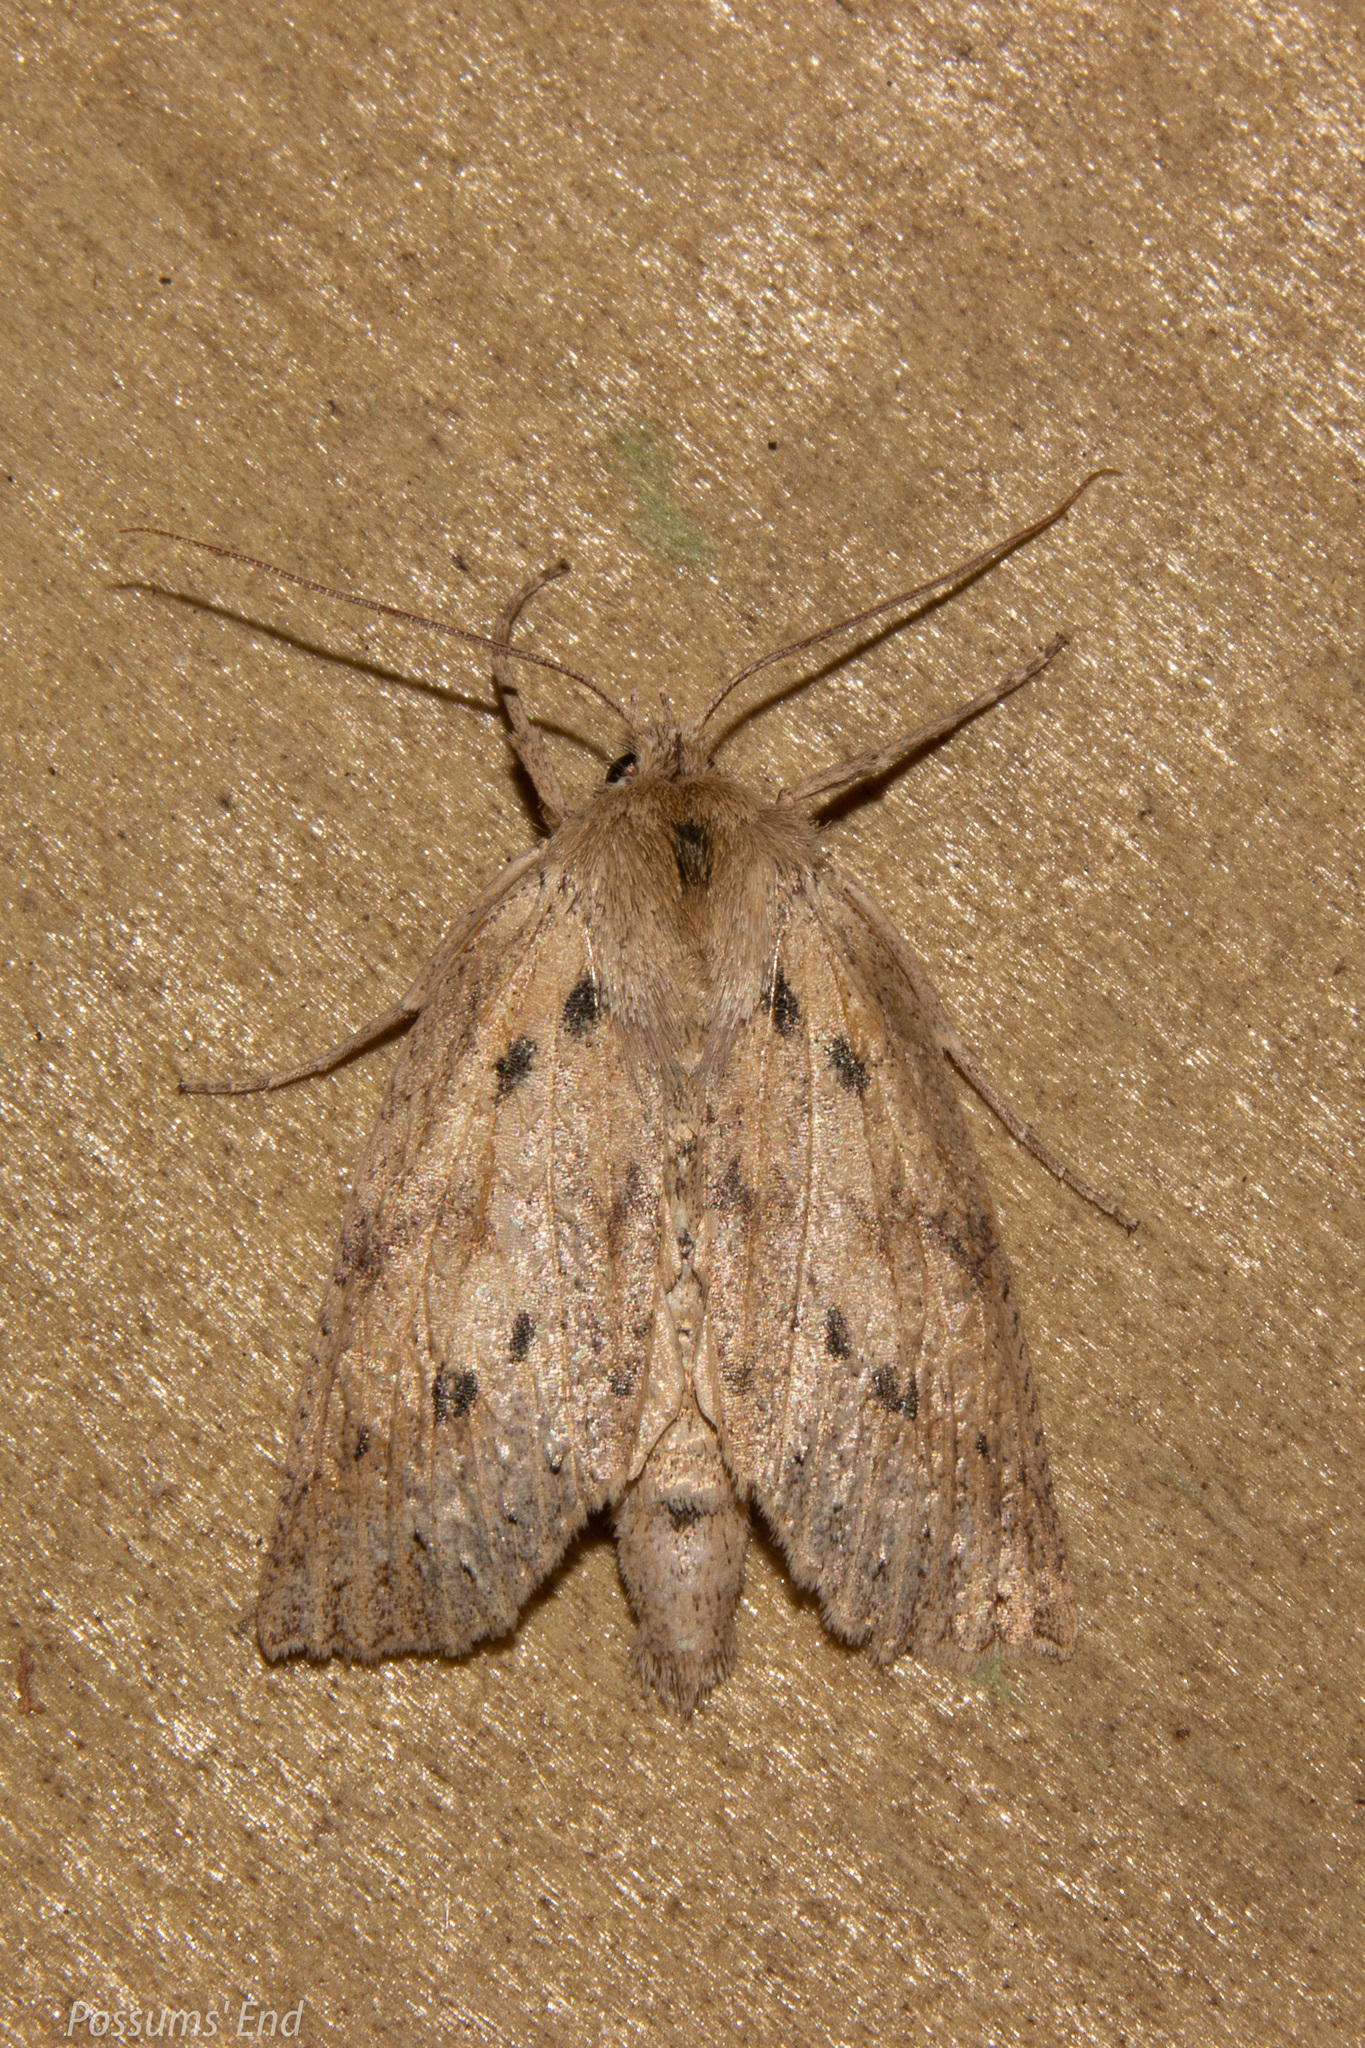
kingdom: Animalia
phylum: Arthropoda
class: Insecta
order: Lepidoptera
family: Geometridae
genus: Declana
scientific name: Declana leptomera
